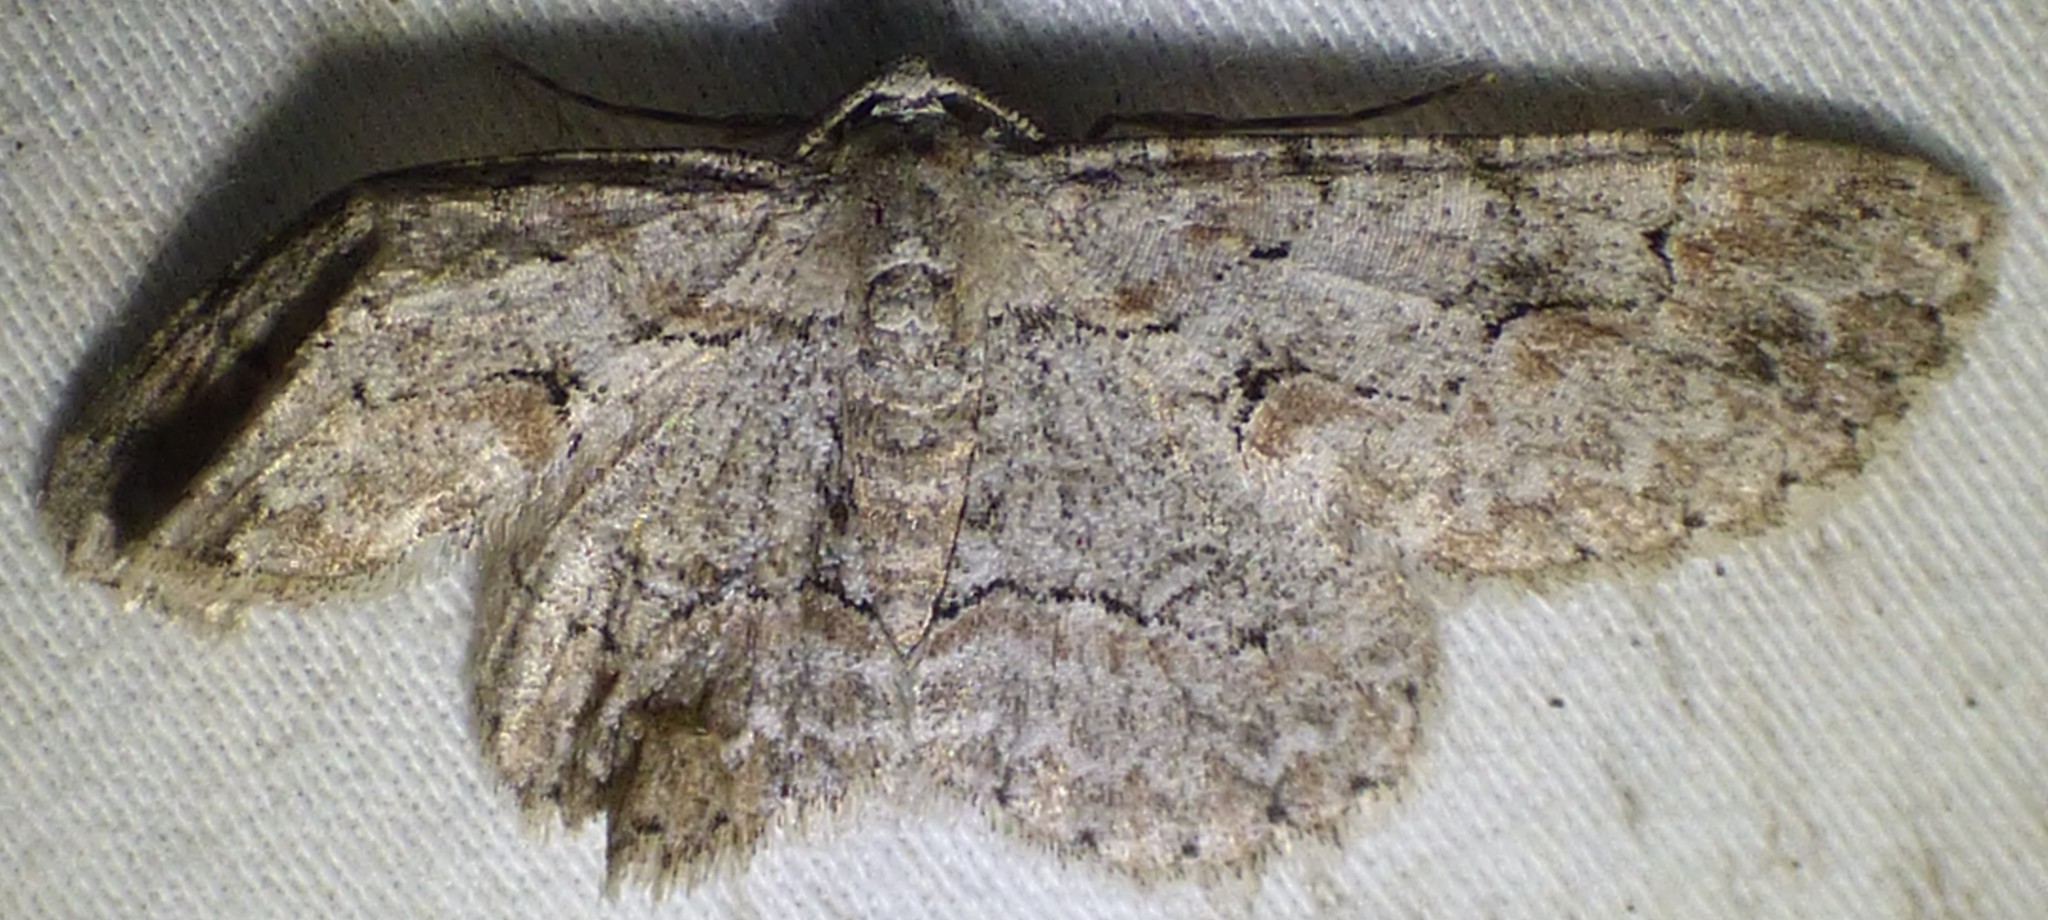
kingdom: Animalia
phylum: Arthropoda
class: Insecta
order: Lepidoptera
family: Geometridae
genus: Iridopsis
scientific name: Iridopsis defectaria
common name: Brown-shaded gray
